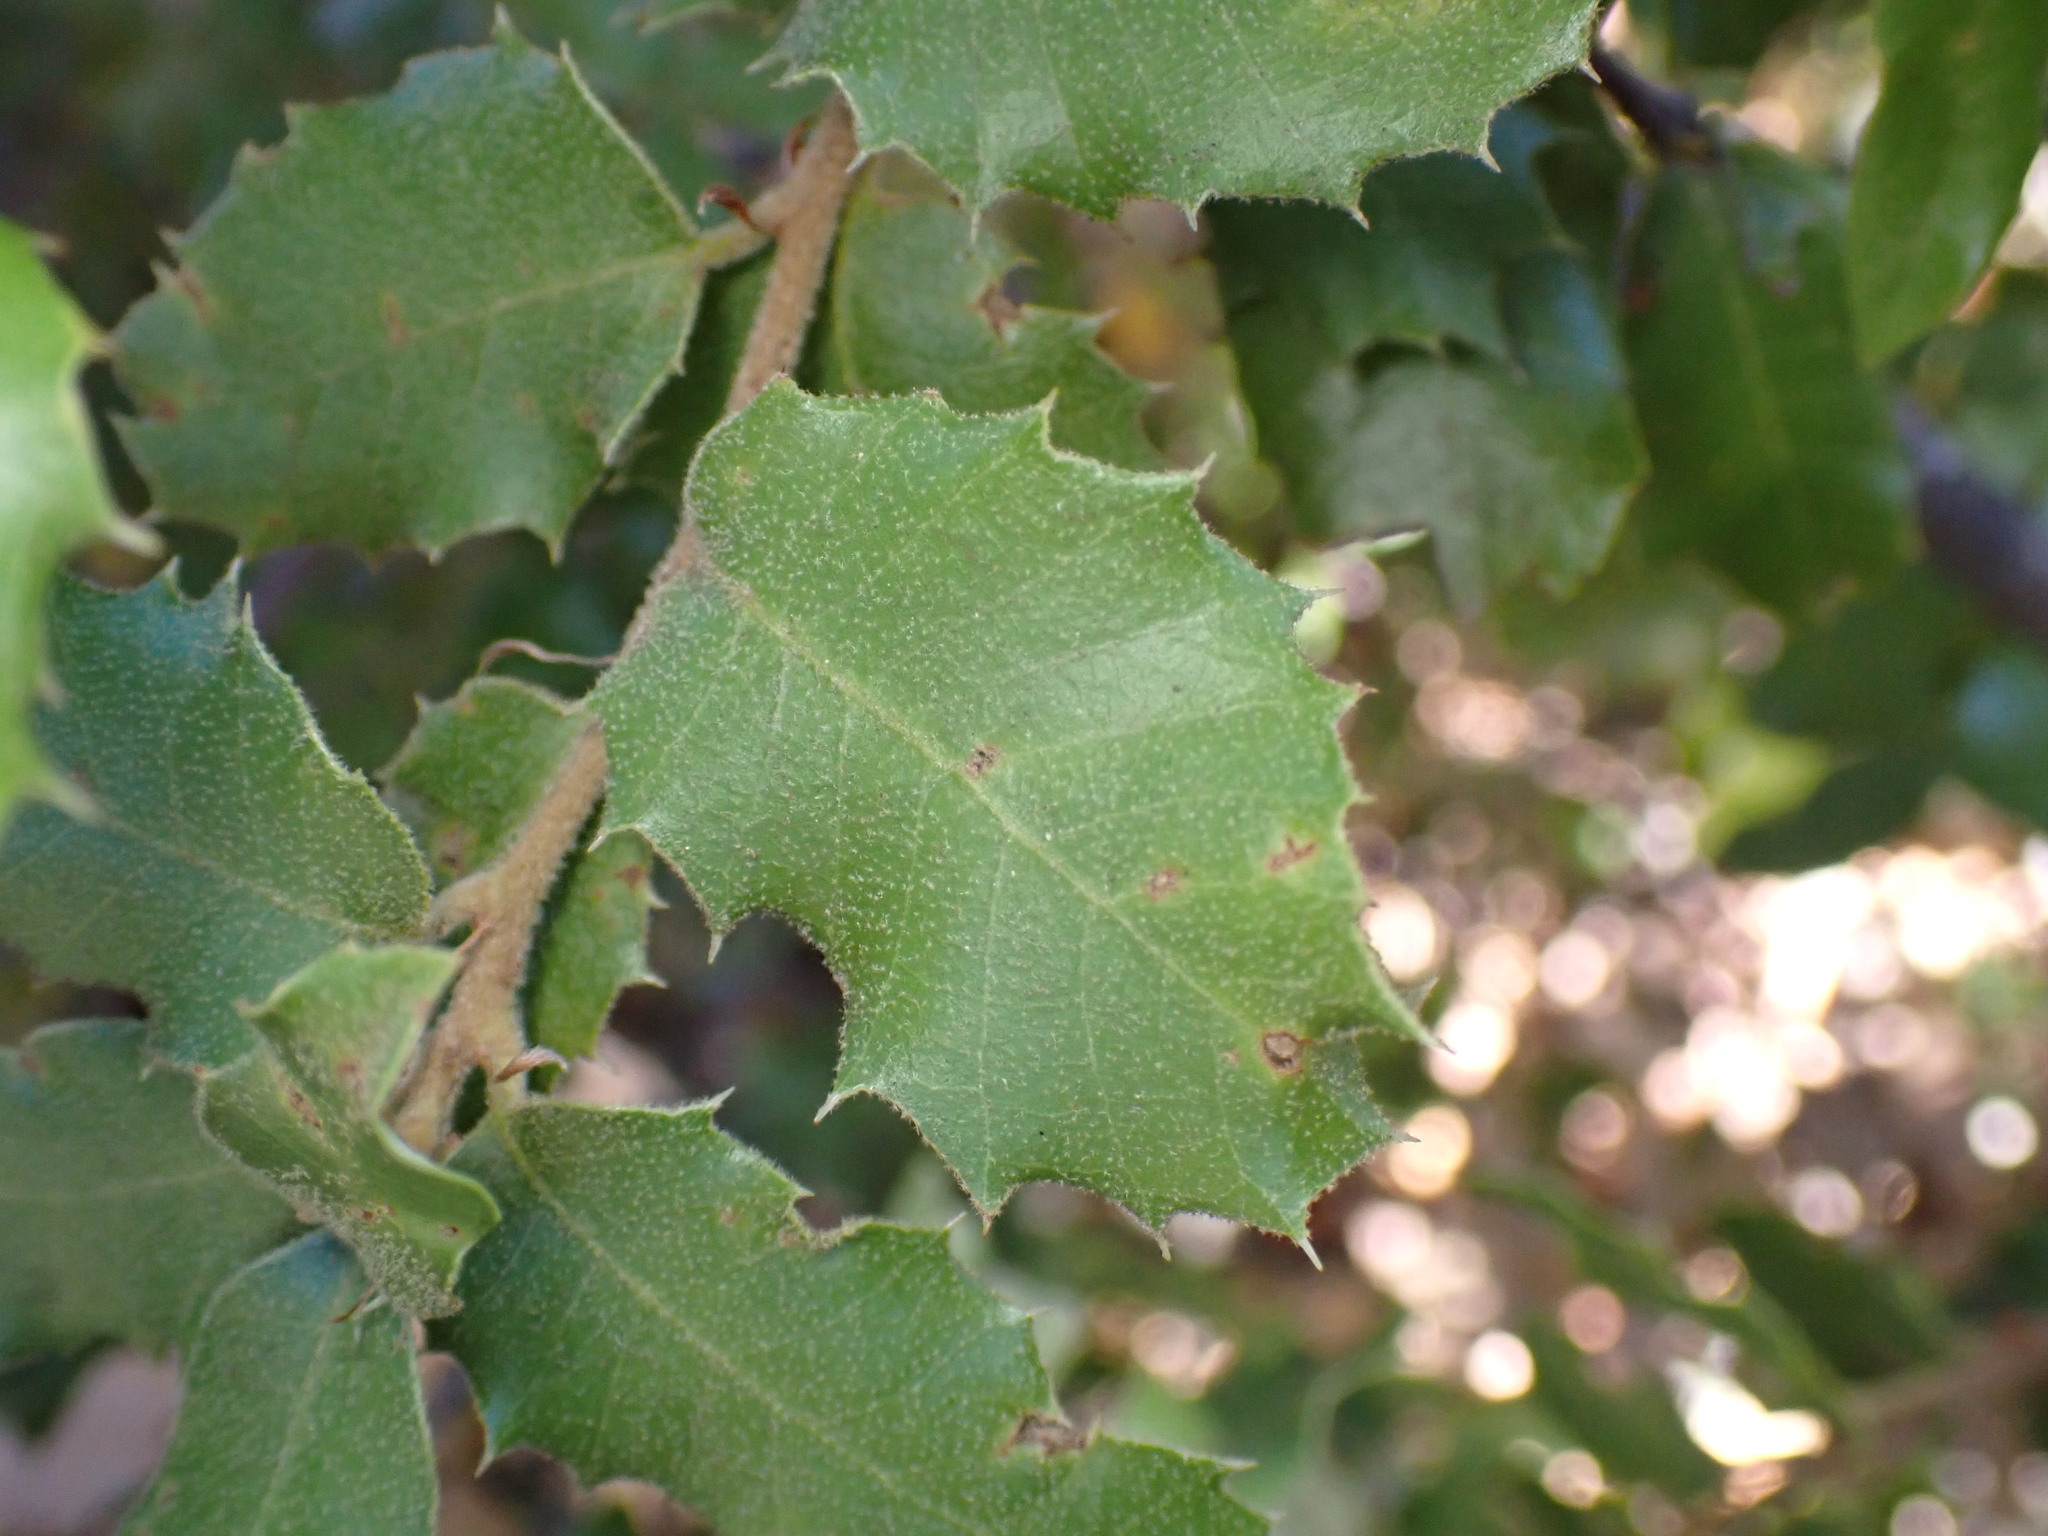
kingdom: Plantae
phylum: Tracheophyta
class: Magnoliopsida
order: Fagales
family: Fagaceae
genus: Quercus
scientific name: Quercus chrysolepis
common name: Canyon live oak
